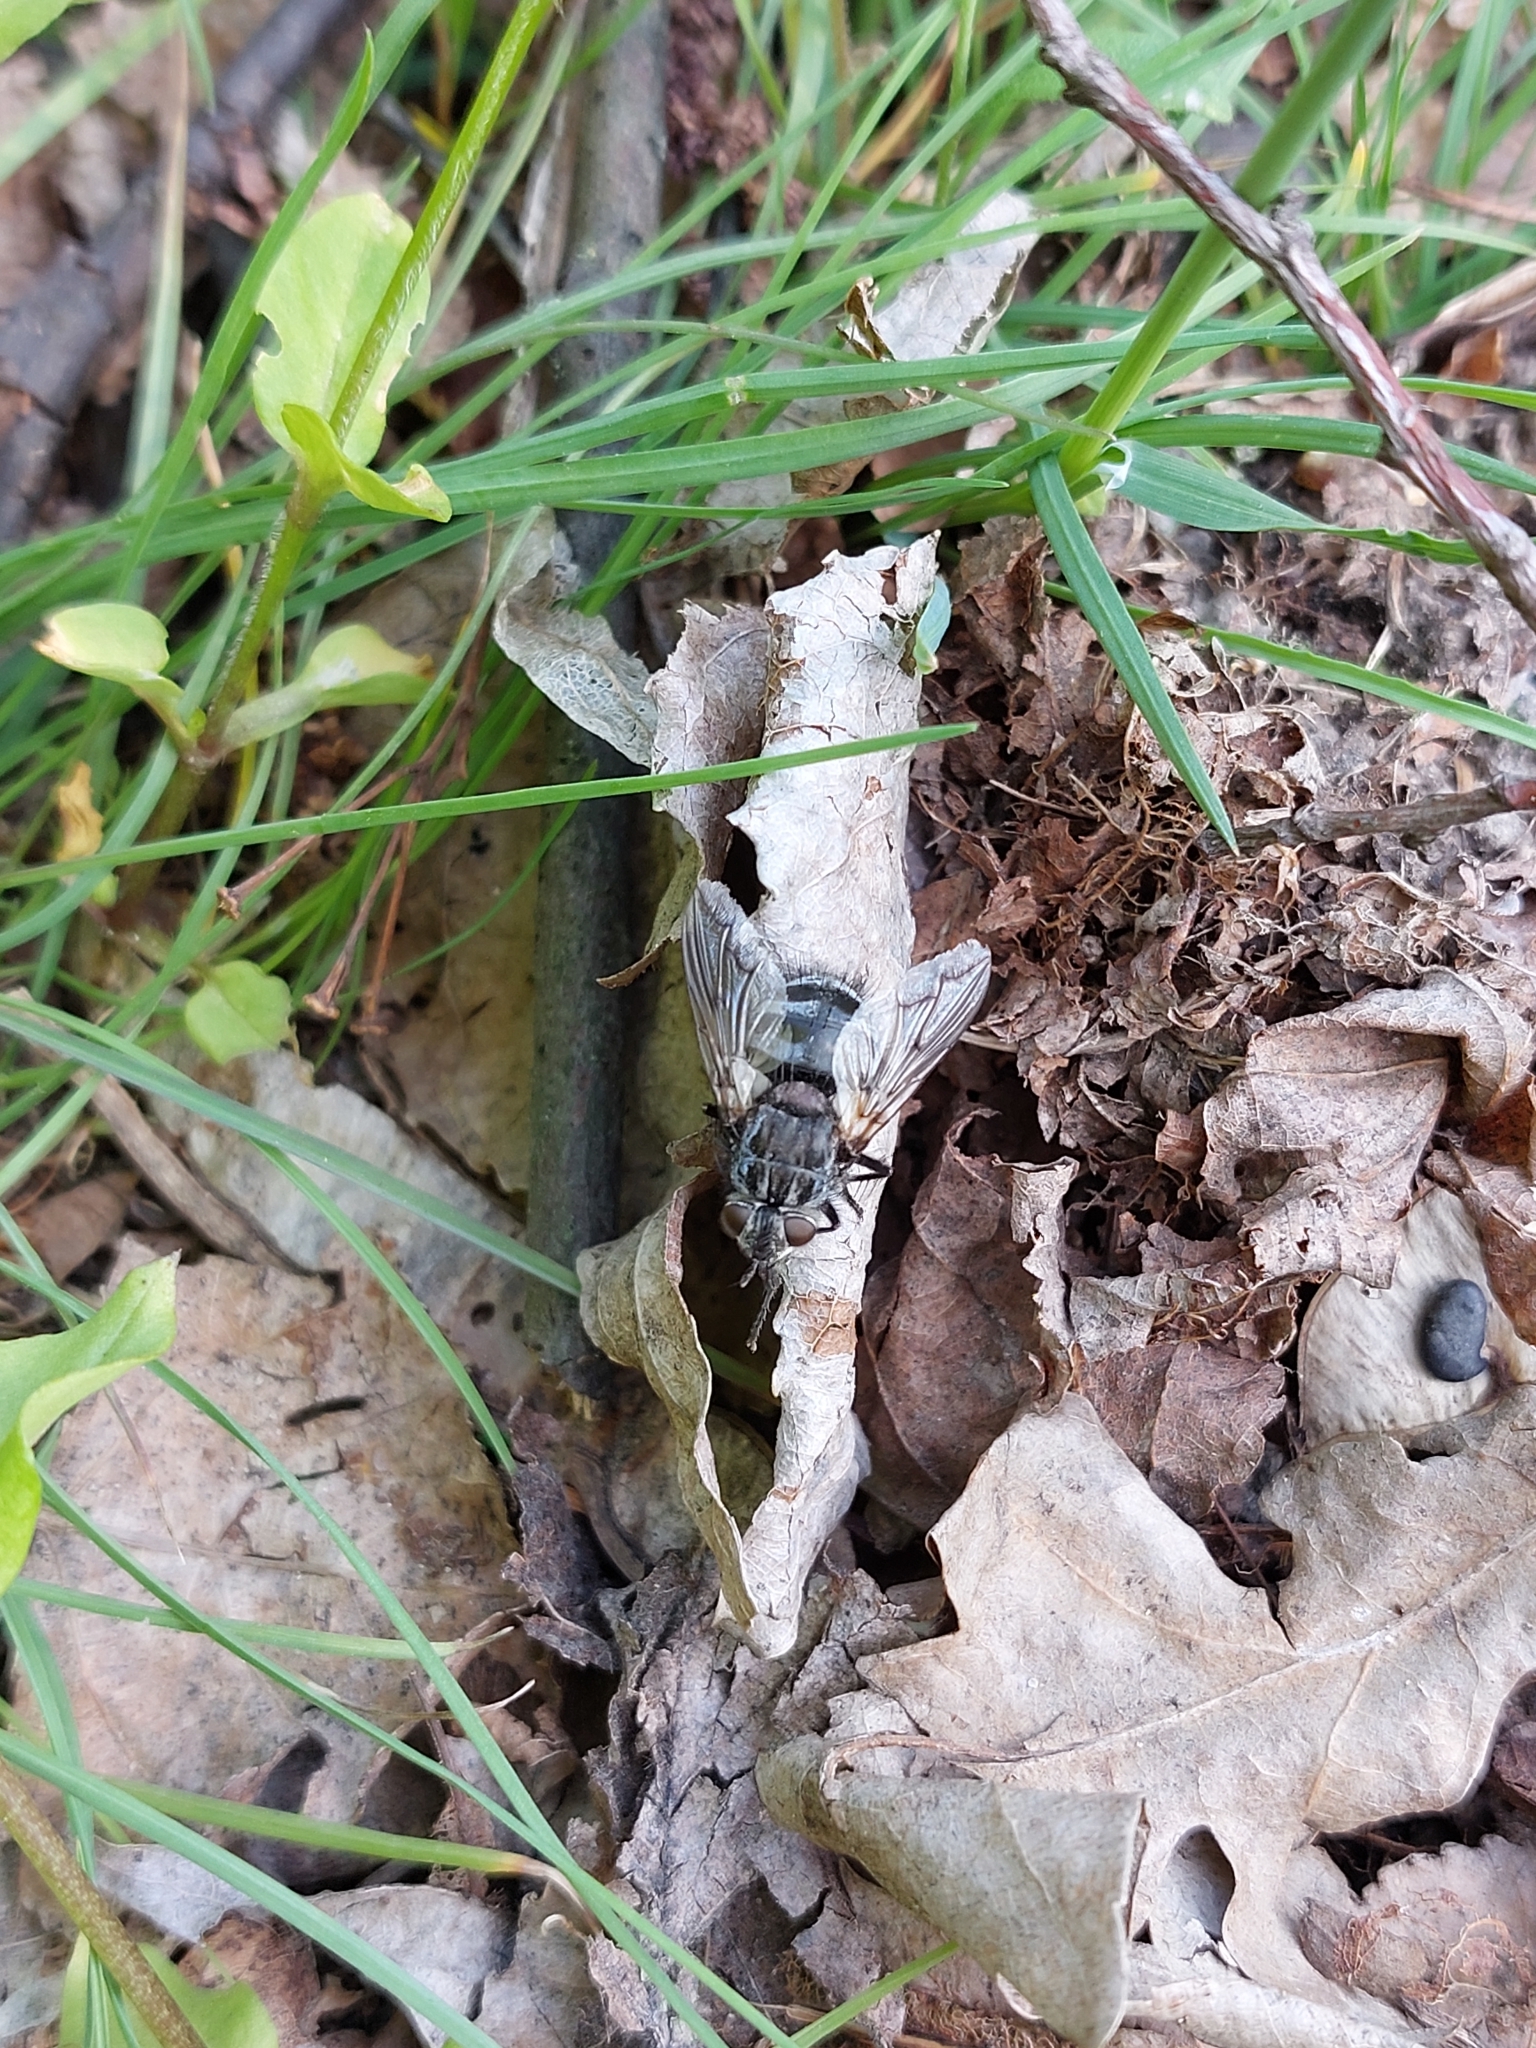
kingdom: Animalia
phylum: Arthropoda
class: Insecta
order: Diptera
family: Tachinidae
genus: Panzeria
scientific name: Panzeria puparum
